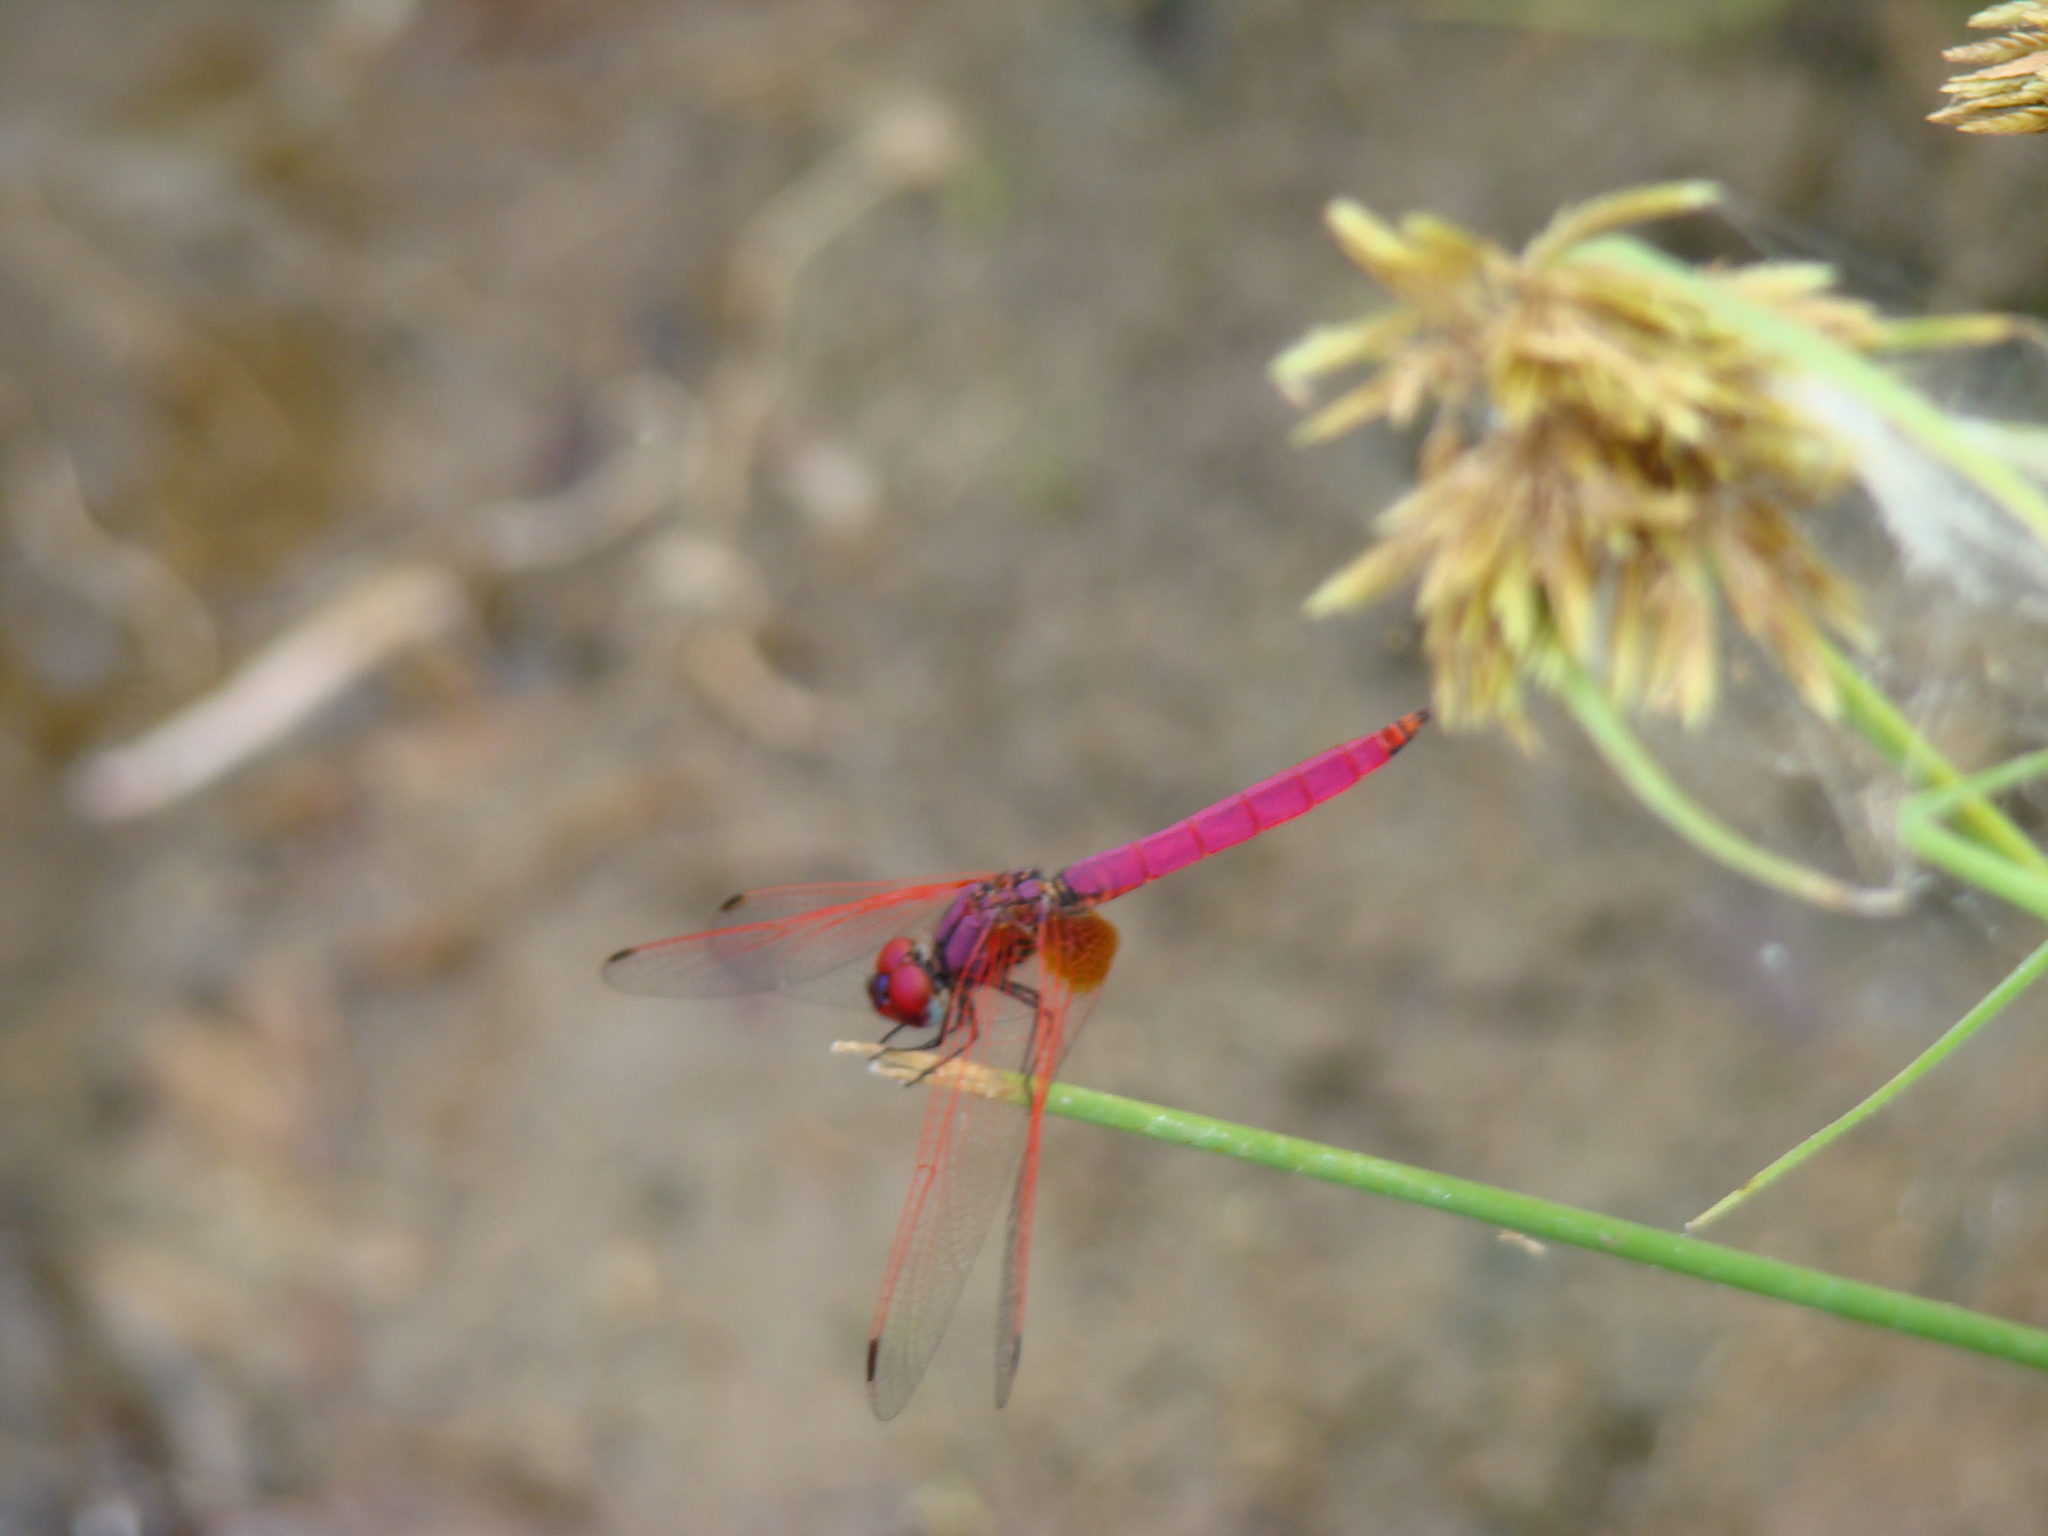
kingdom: Animalia
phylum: Arthropoda
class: Insecta
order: Odonata
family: Libellulidae
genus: Trithemis
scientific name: Trithemis aurora
